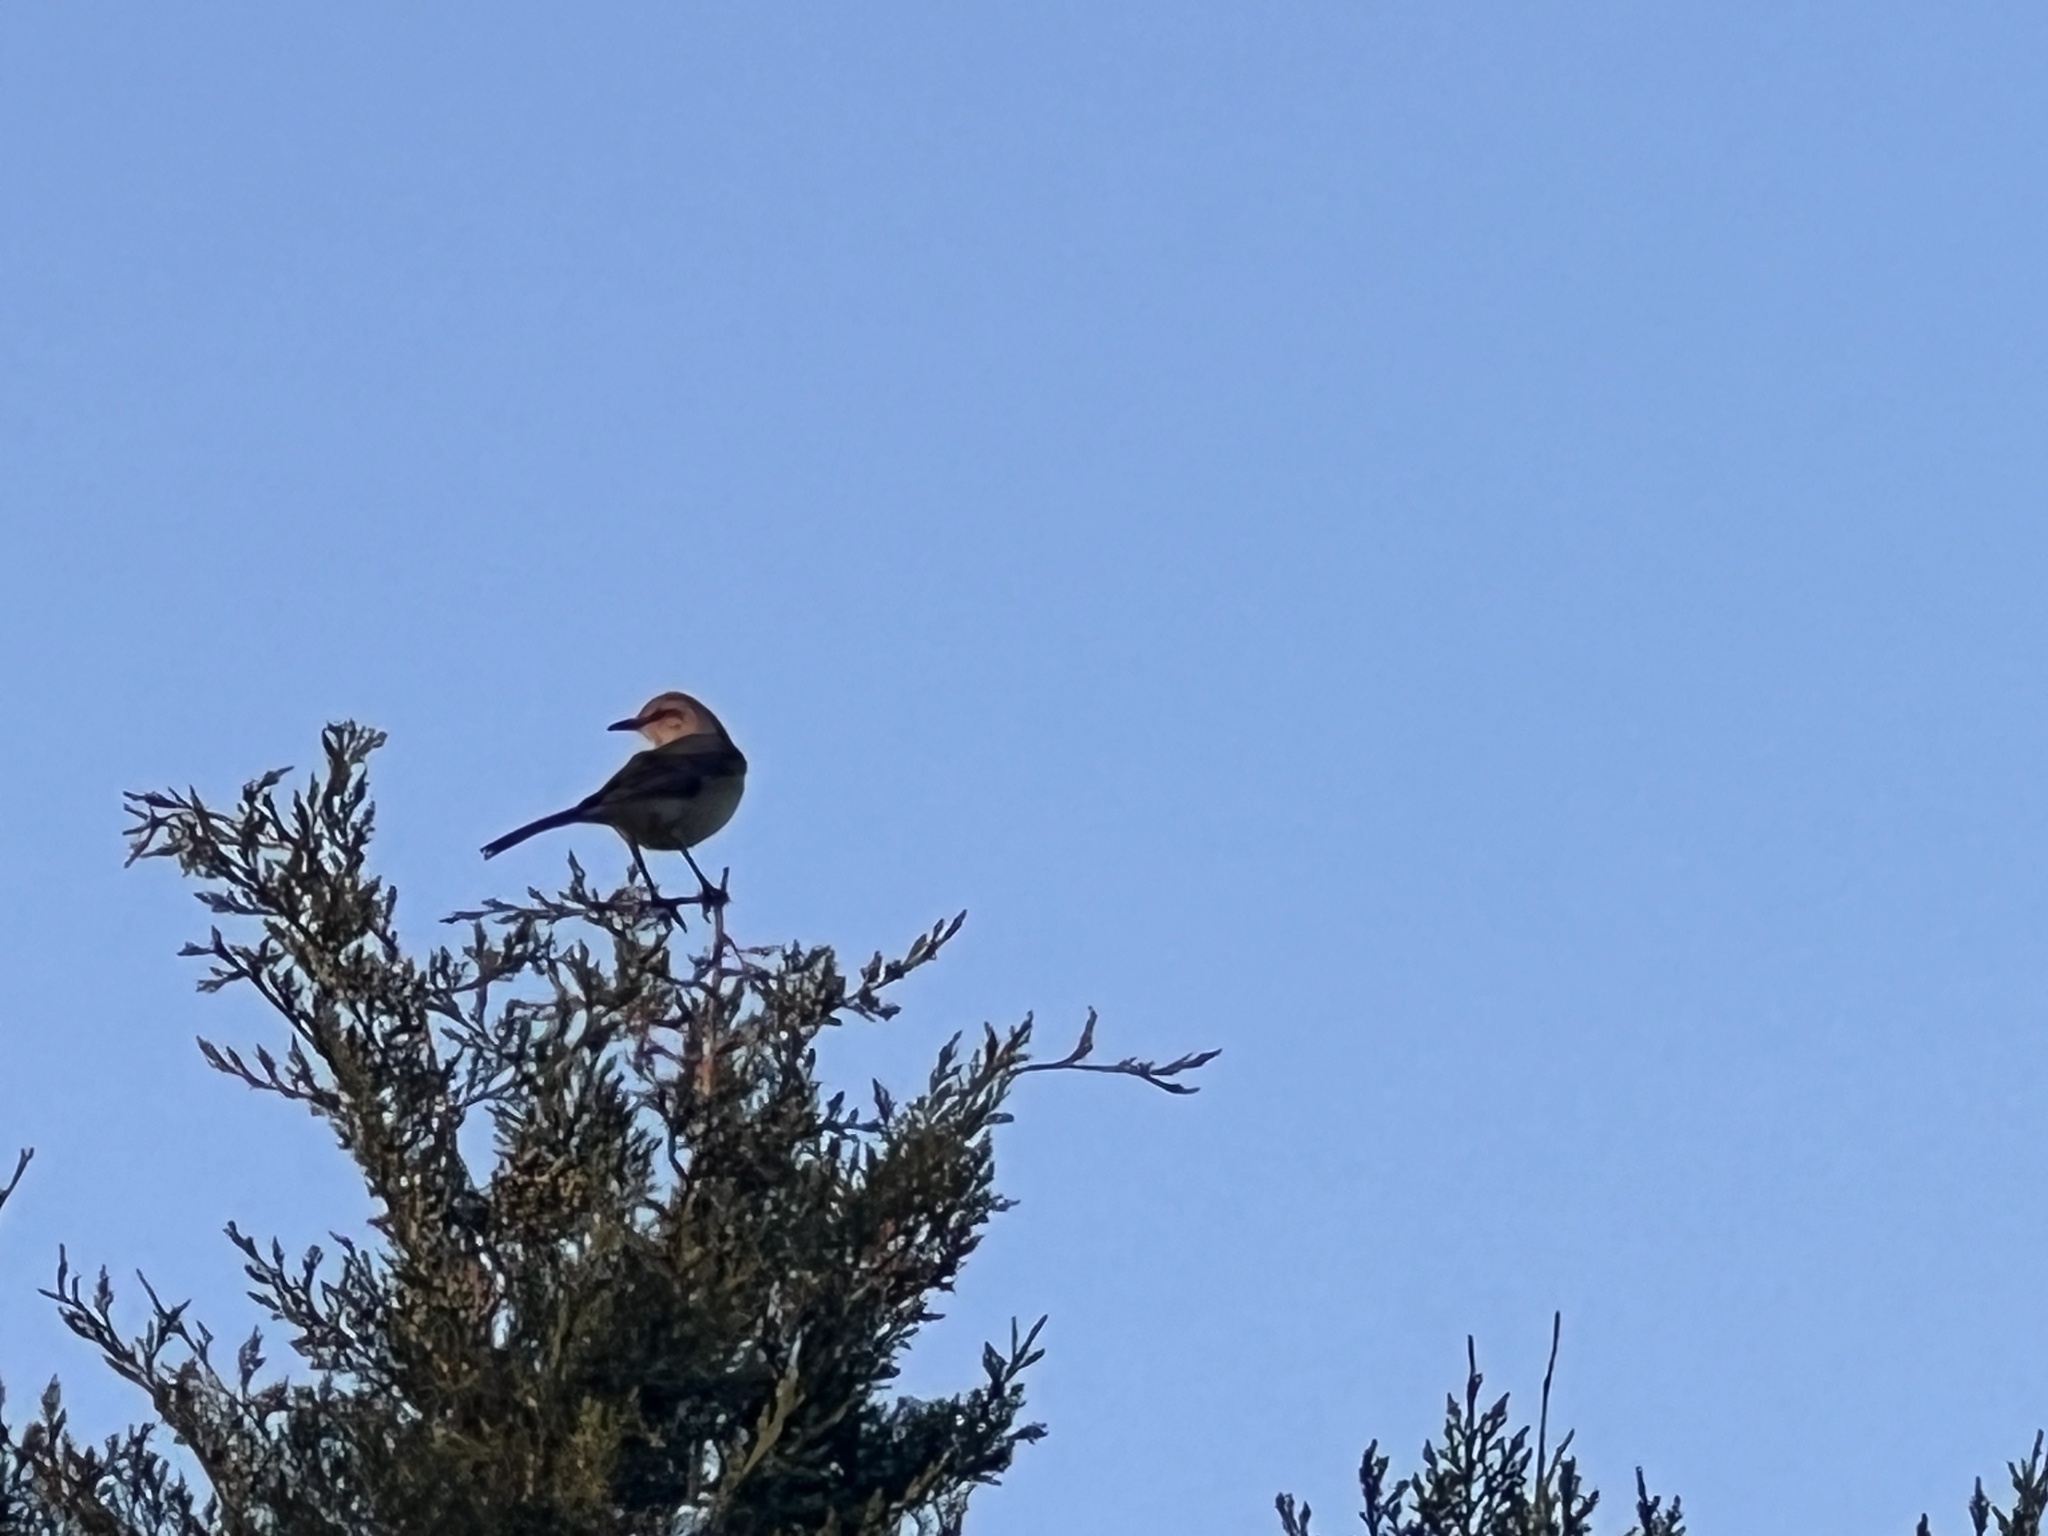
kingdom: Animalia
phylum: Chordata
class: Aves
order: Passeriformes
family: Mimidae
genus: Mimus
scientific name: Mimus polyglottos
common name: Northern mockingbird
